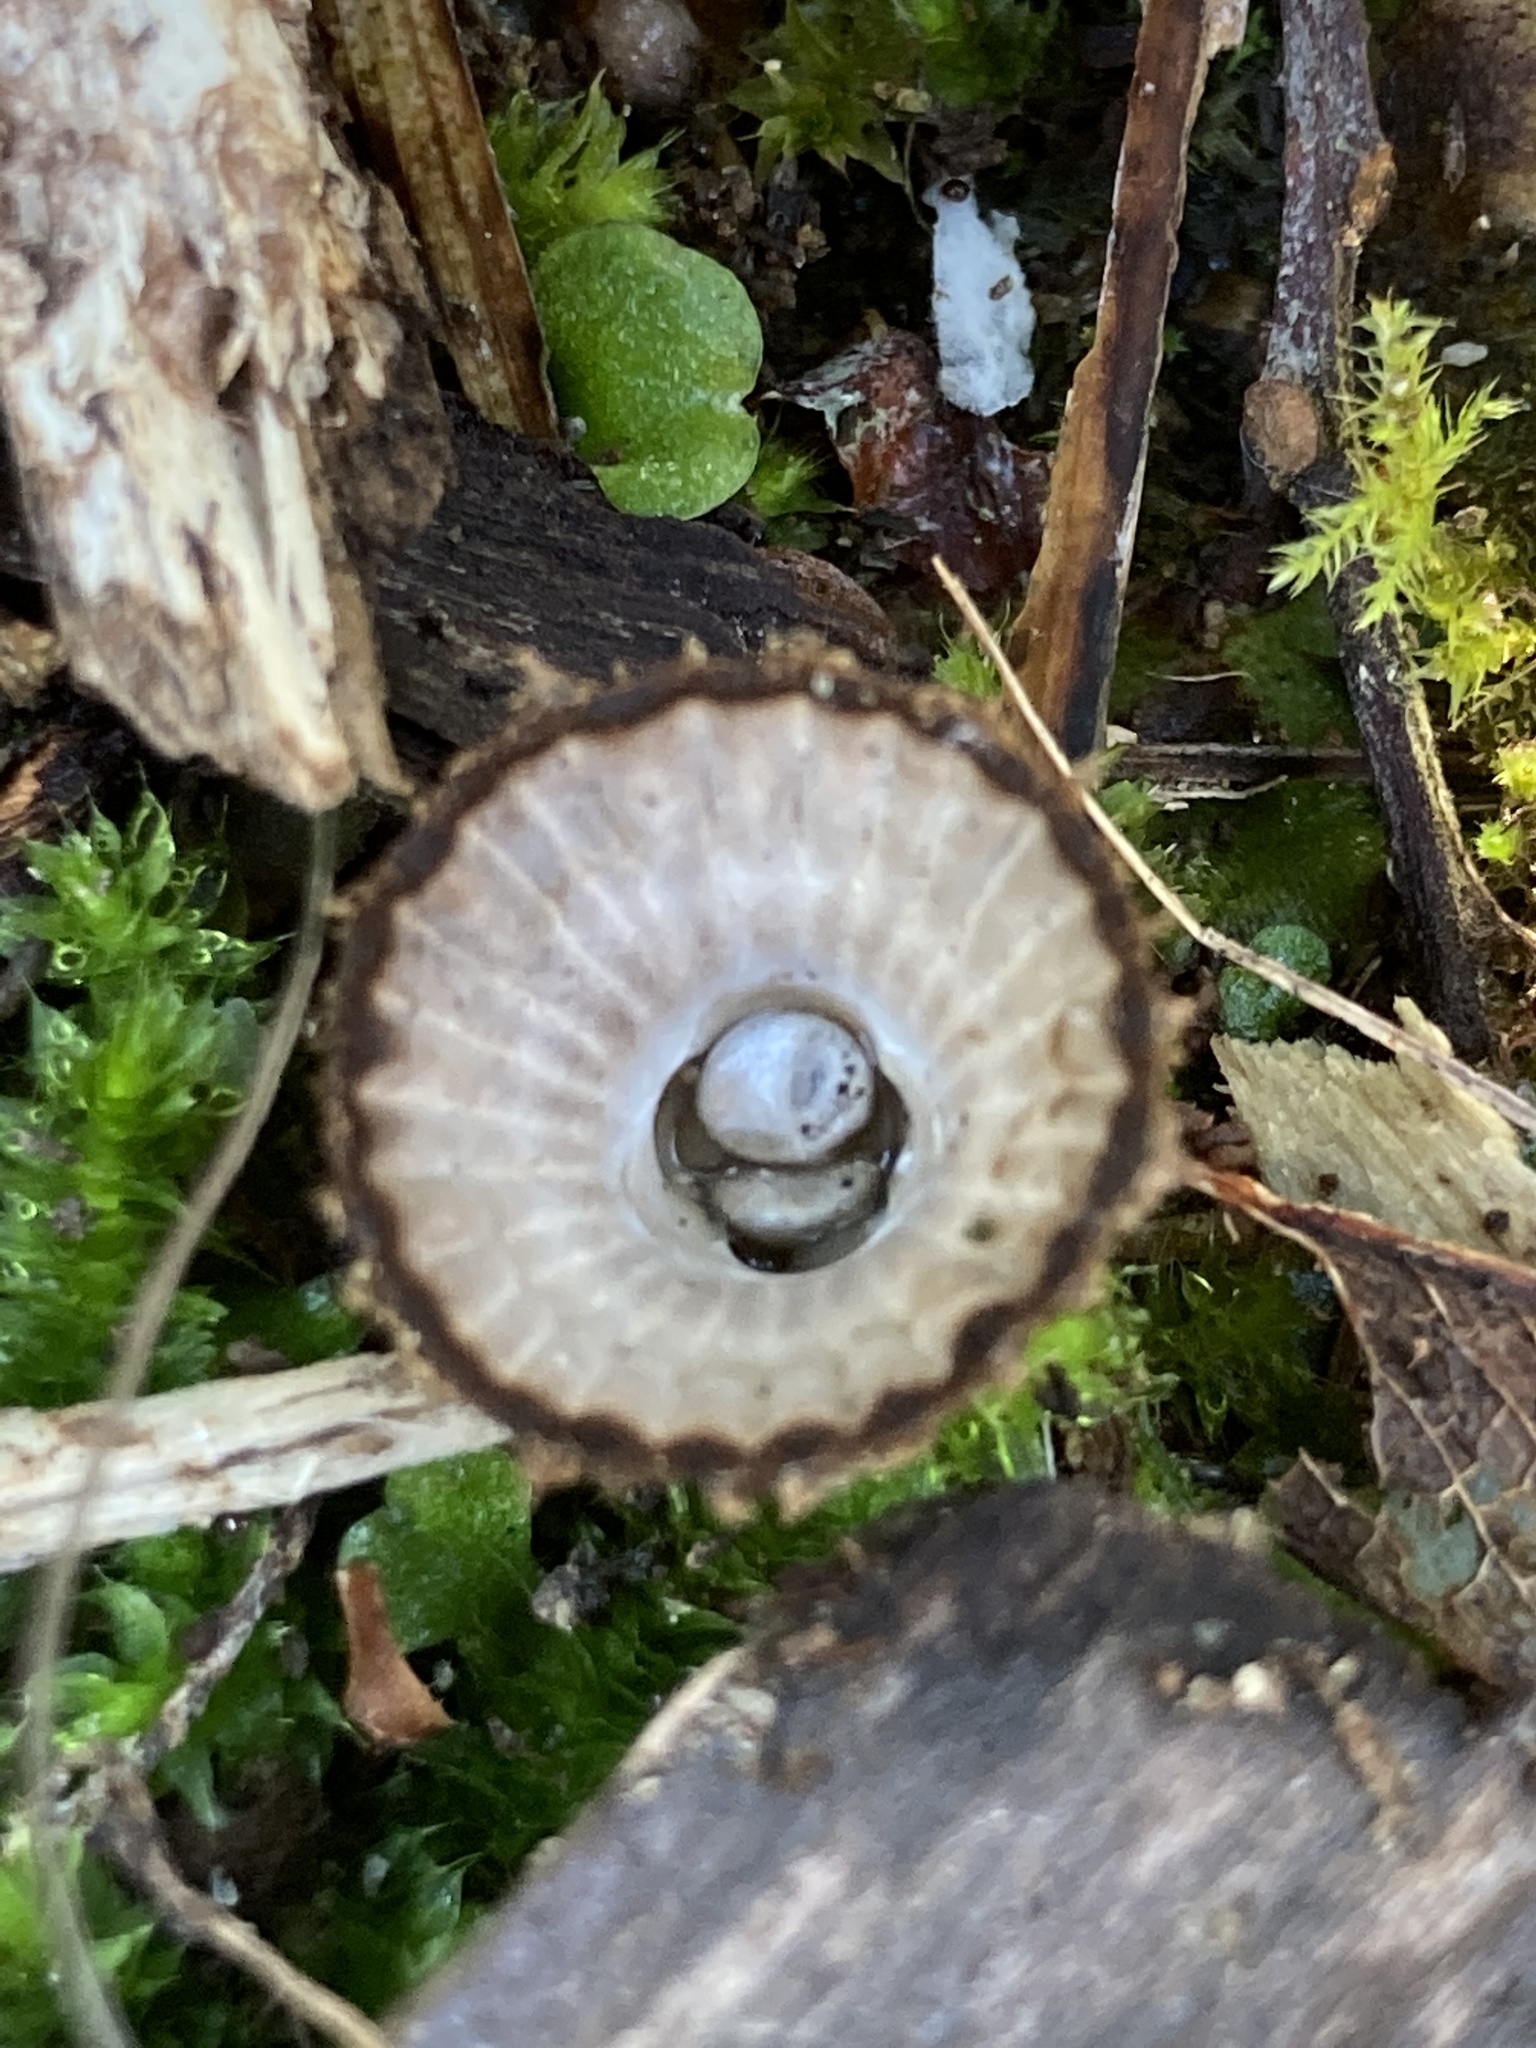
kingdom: Fungi
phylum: Basidiomycota
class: Agaricomycetes
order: Agaricales
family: Agaricaceae
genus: Cyathus
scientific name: Cyathus striatus
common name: Fluted bird's nest
